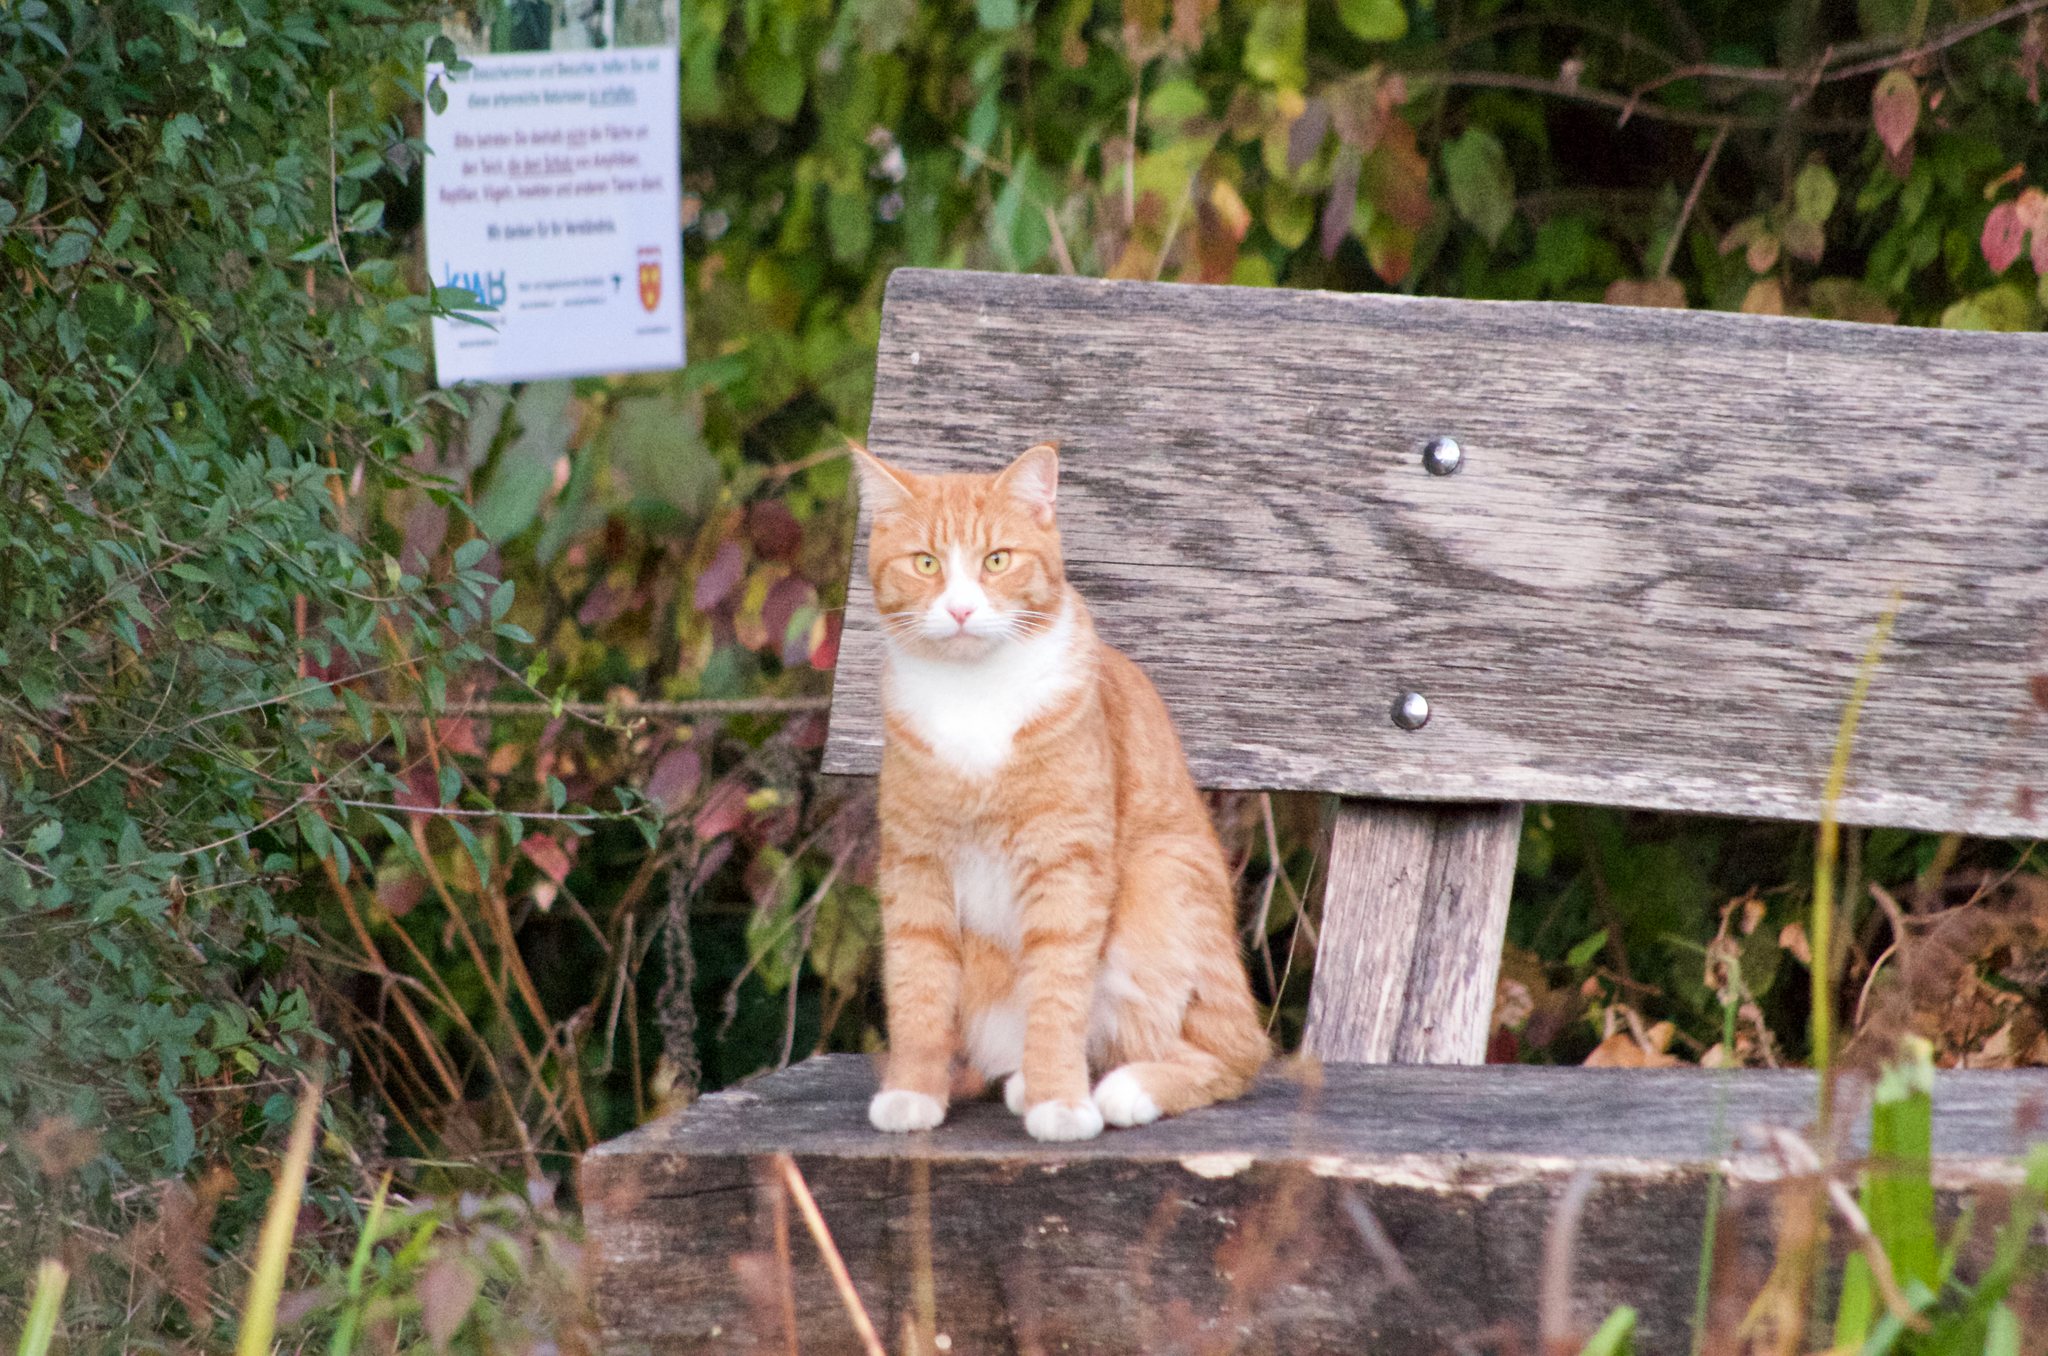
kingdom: Animalia
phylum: Chordata
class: Mammalia
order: Carnivora
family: Felidae
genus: Felis
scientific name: Felis catus
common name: Domestic cat
